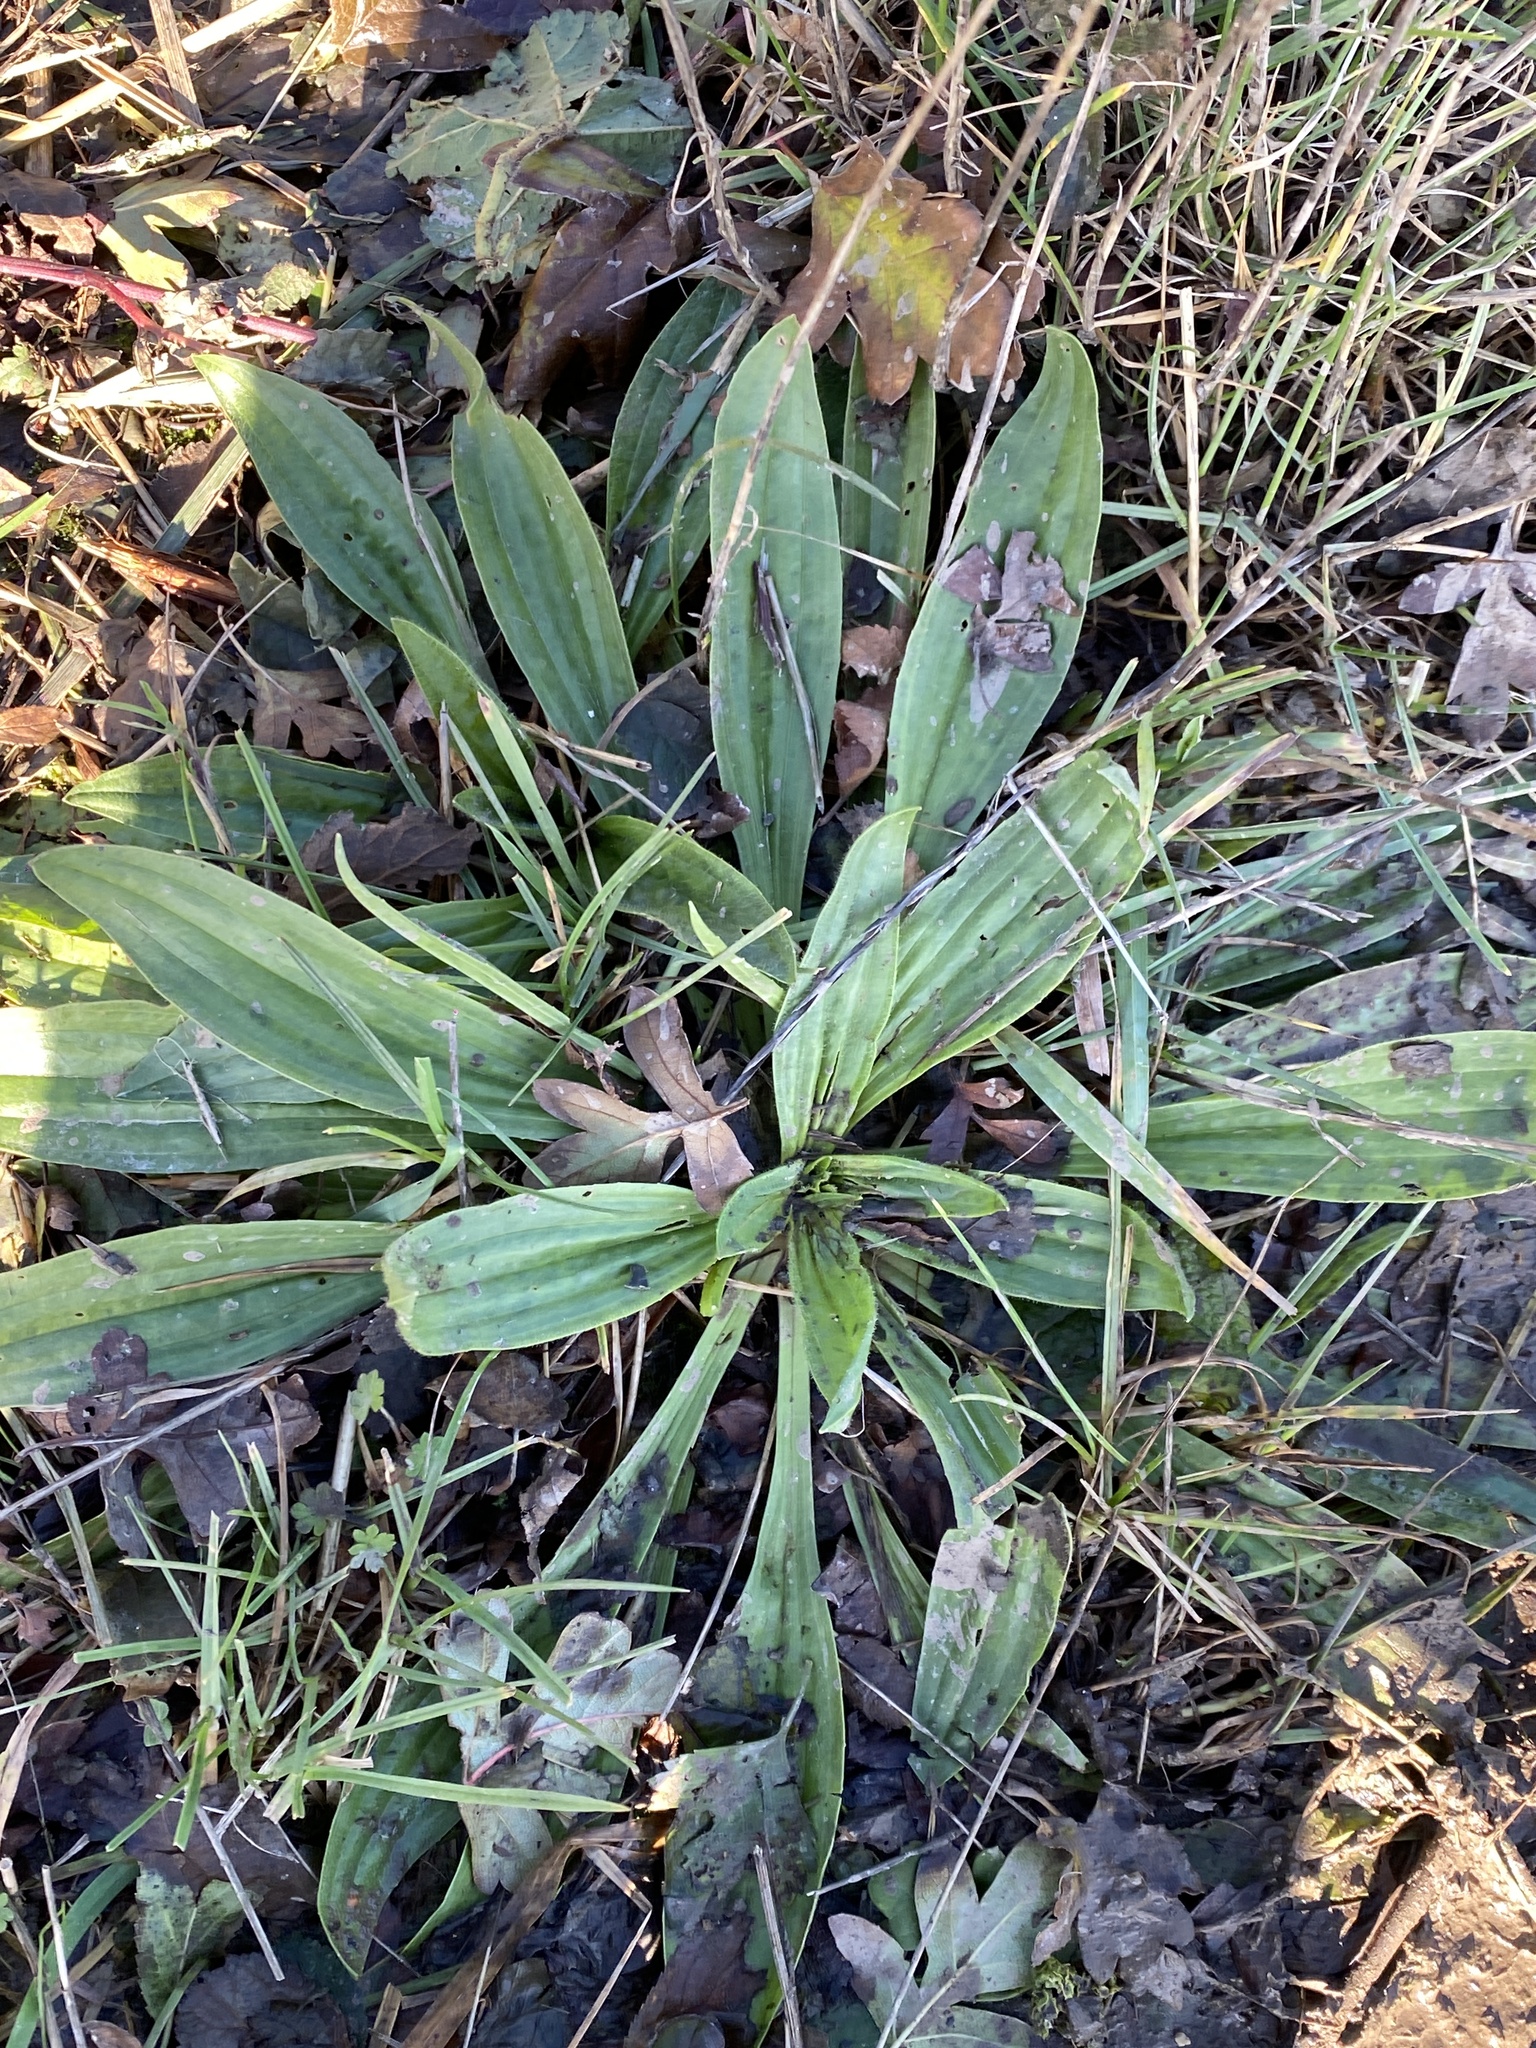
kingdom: Plantae
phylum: Tracheophyta
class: Magnoliopsida
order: Lamiales
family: Plantaginaceae
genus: Plantago
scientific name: Plantago lanceolata
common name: Ribwort plantain
